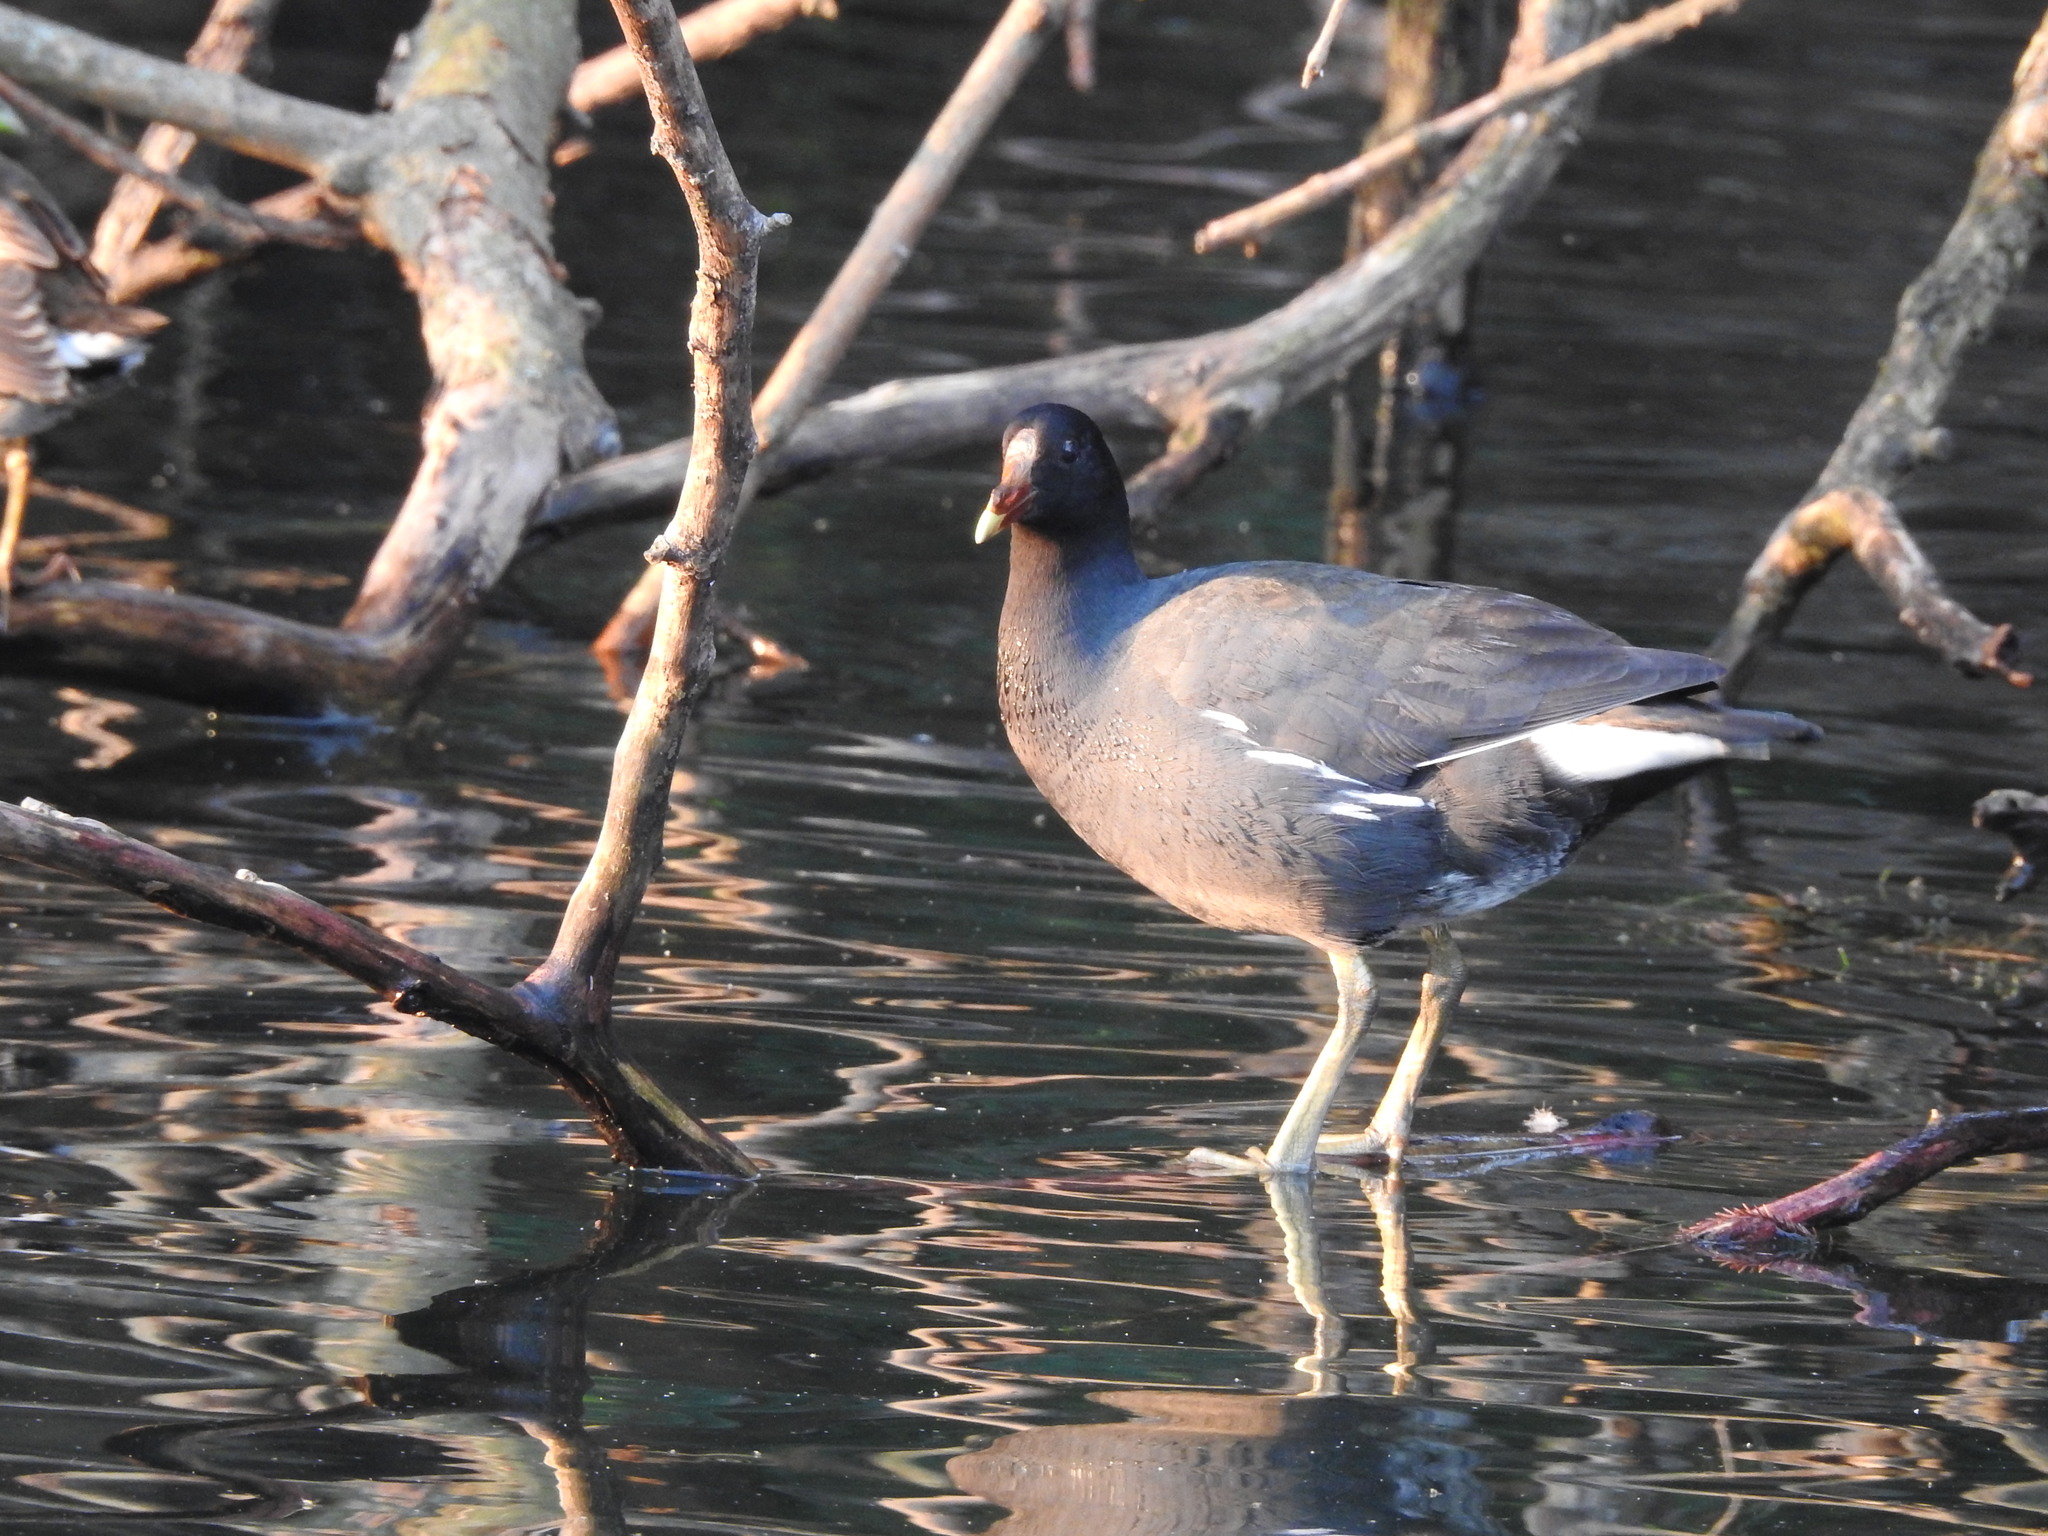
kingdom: Animalia
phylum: Chordata
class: Aves
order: Gruiformes
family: Rallidae
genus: Gallinula
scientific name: Gallinula chloropus
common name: Common moorhen
